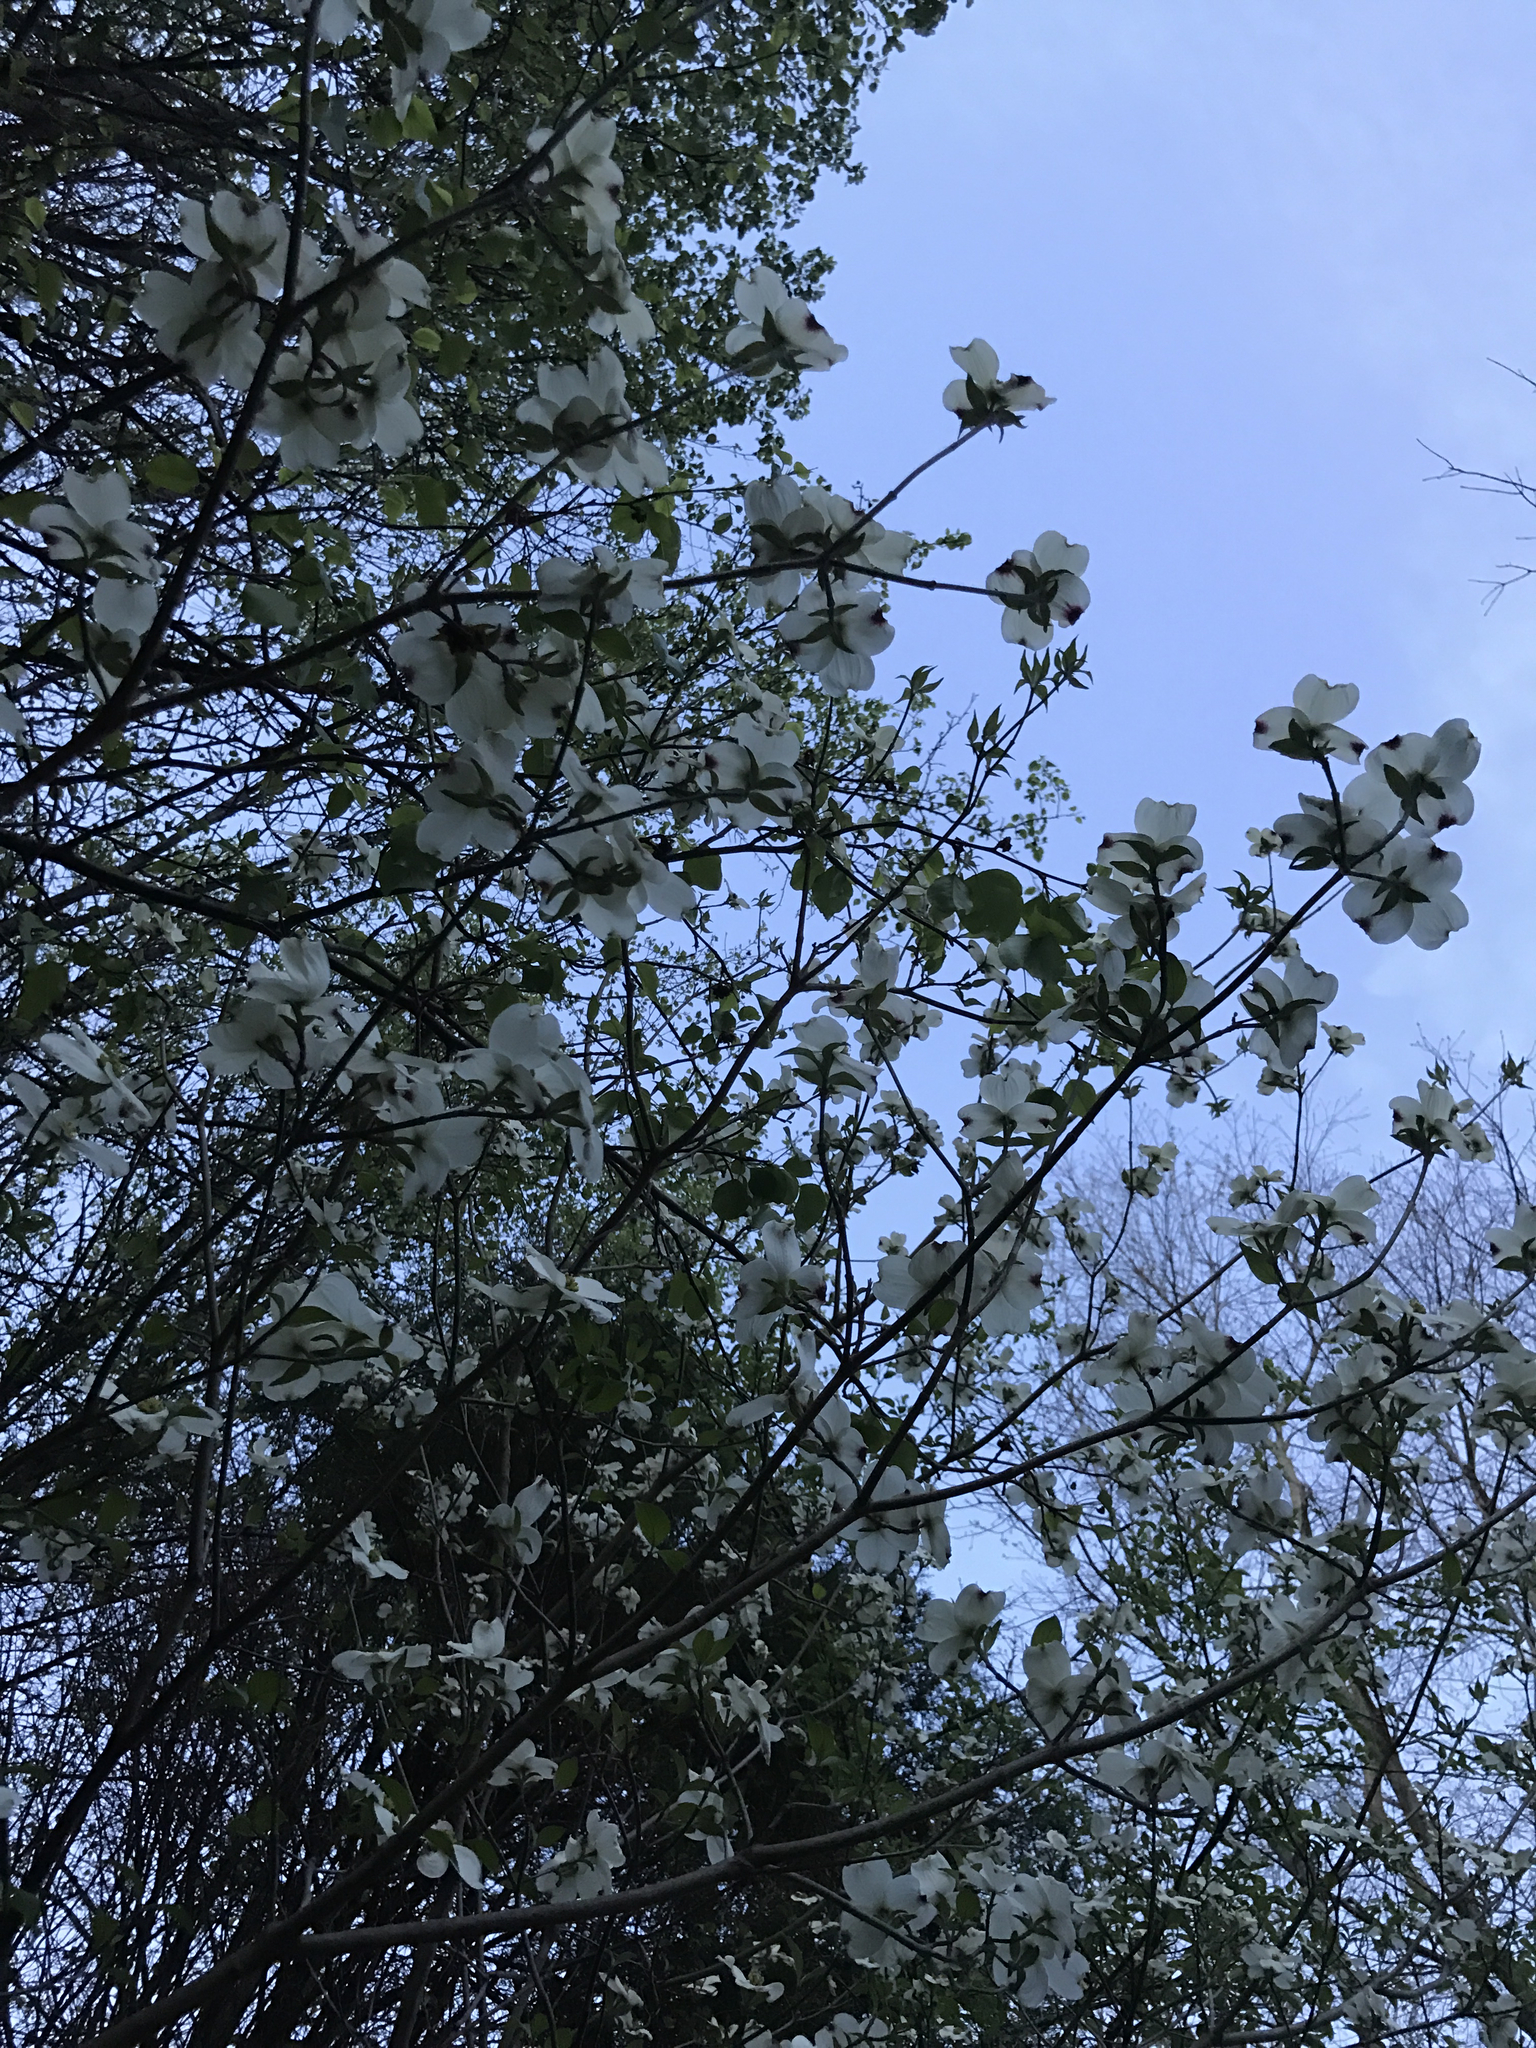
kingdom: Plantae
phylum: Tracheophyta
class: Magnoliopsida
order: Cornales
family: Cornaceae
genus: Cornus
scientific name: Cornus florida
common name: Flowering dogwood
